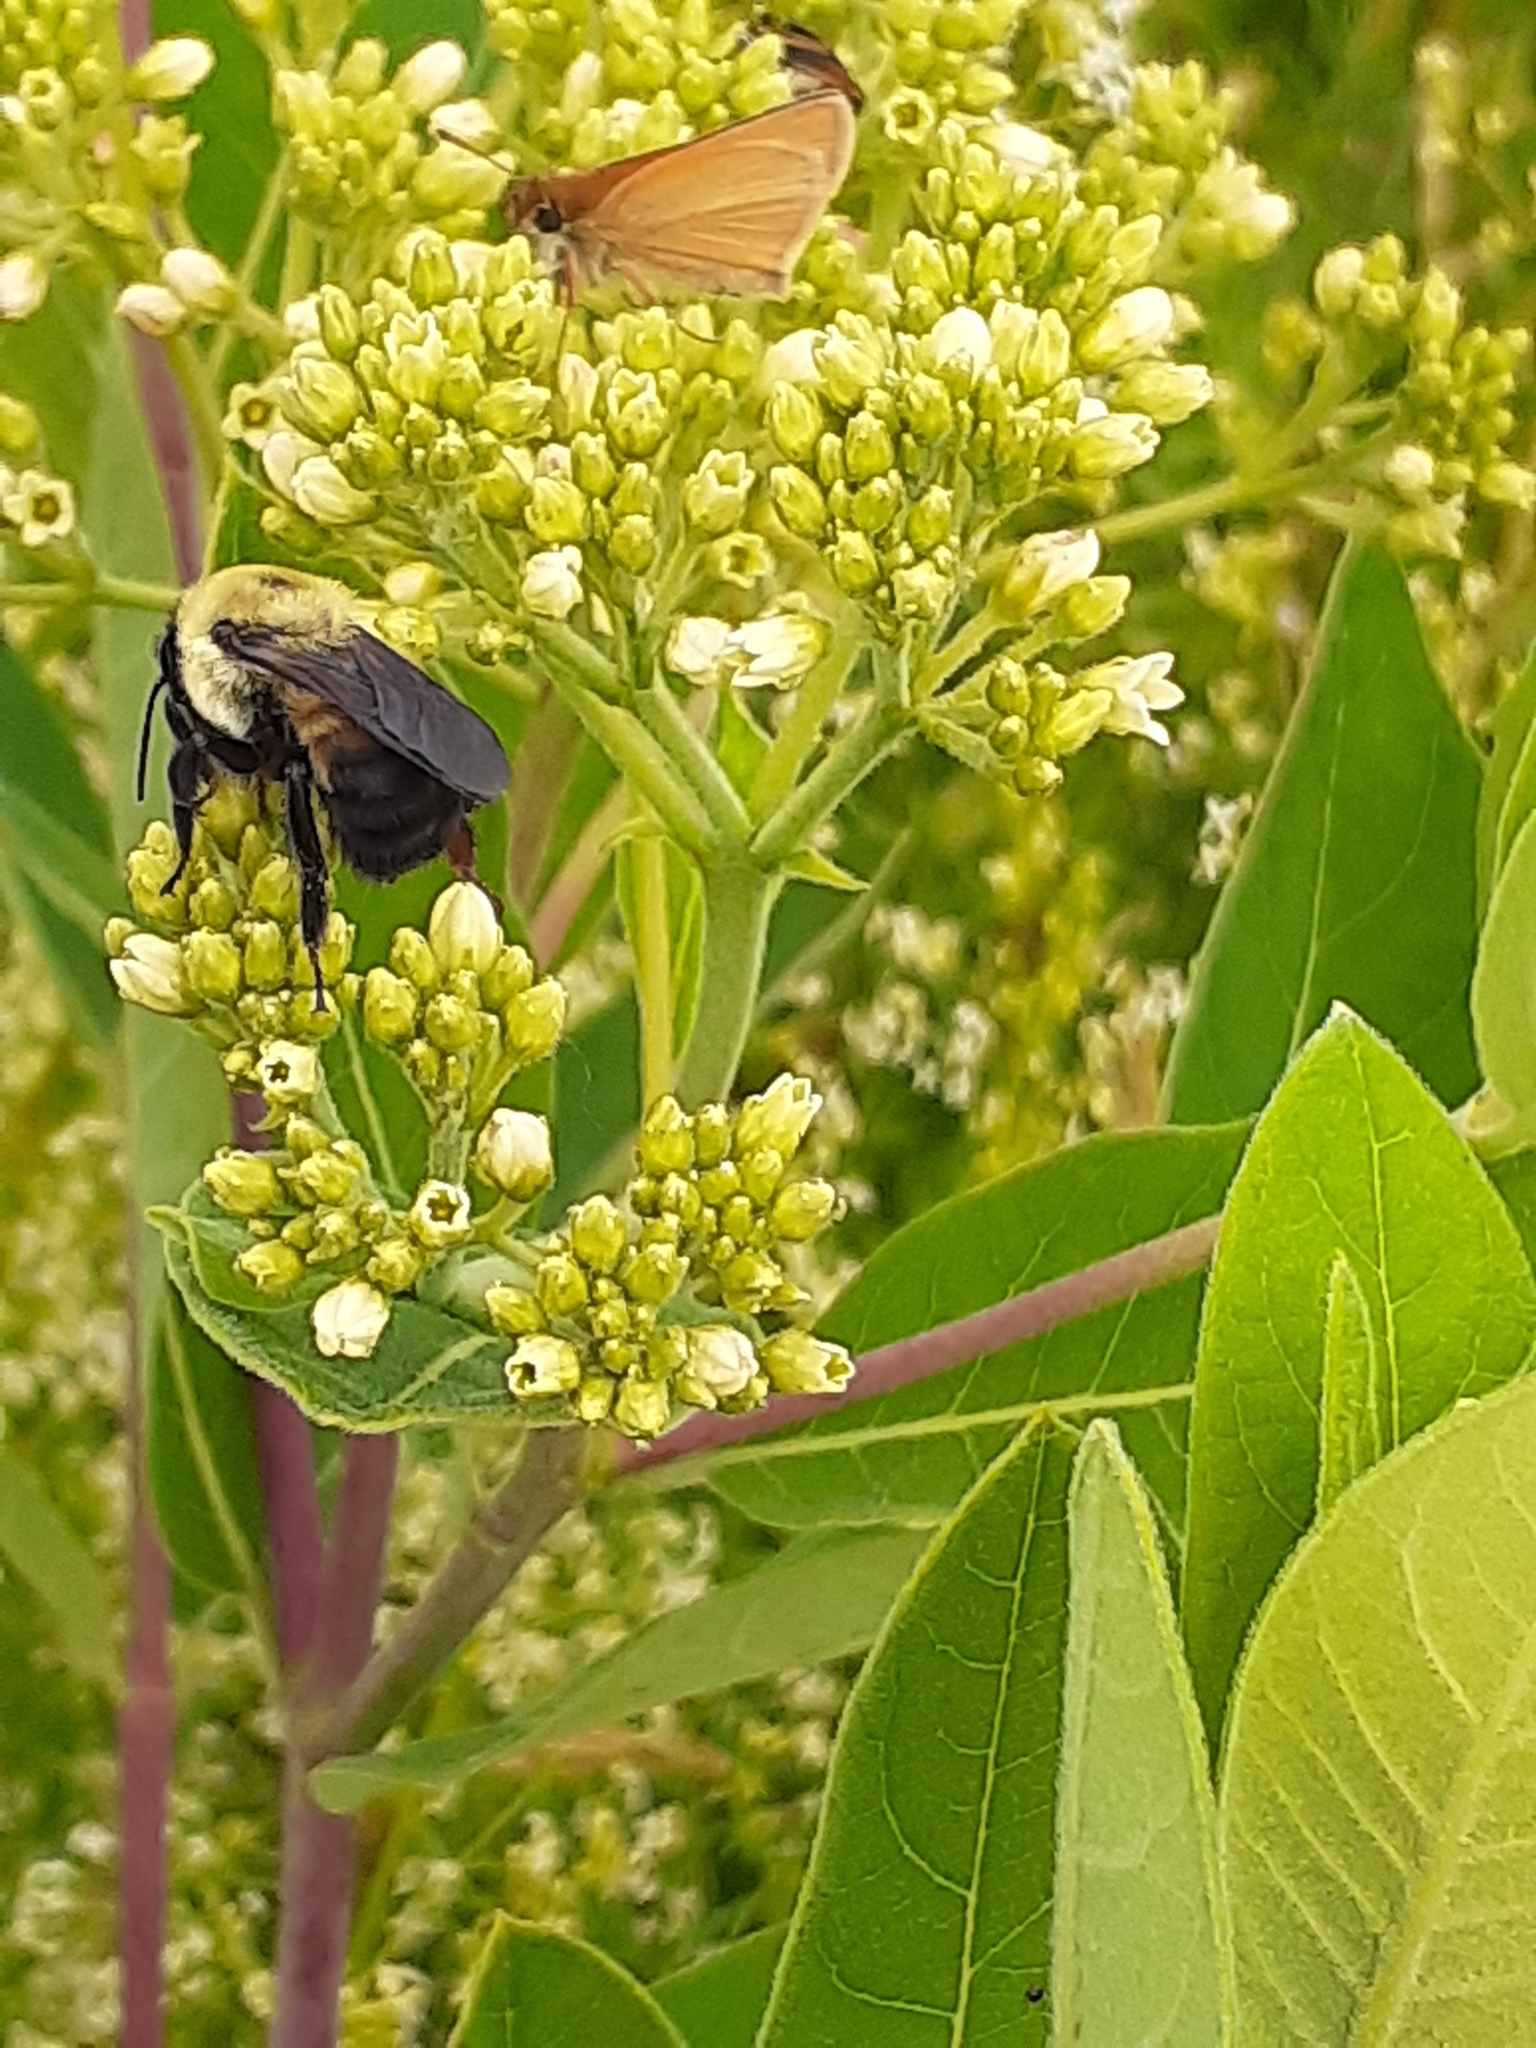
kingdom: Animalia
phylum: Arthropoda
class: Insecta
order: Hymenoptera
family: Apidae
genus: Bombus
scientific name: Bombus griseocollis
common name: Brown-belted bumble bee
